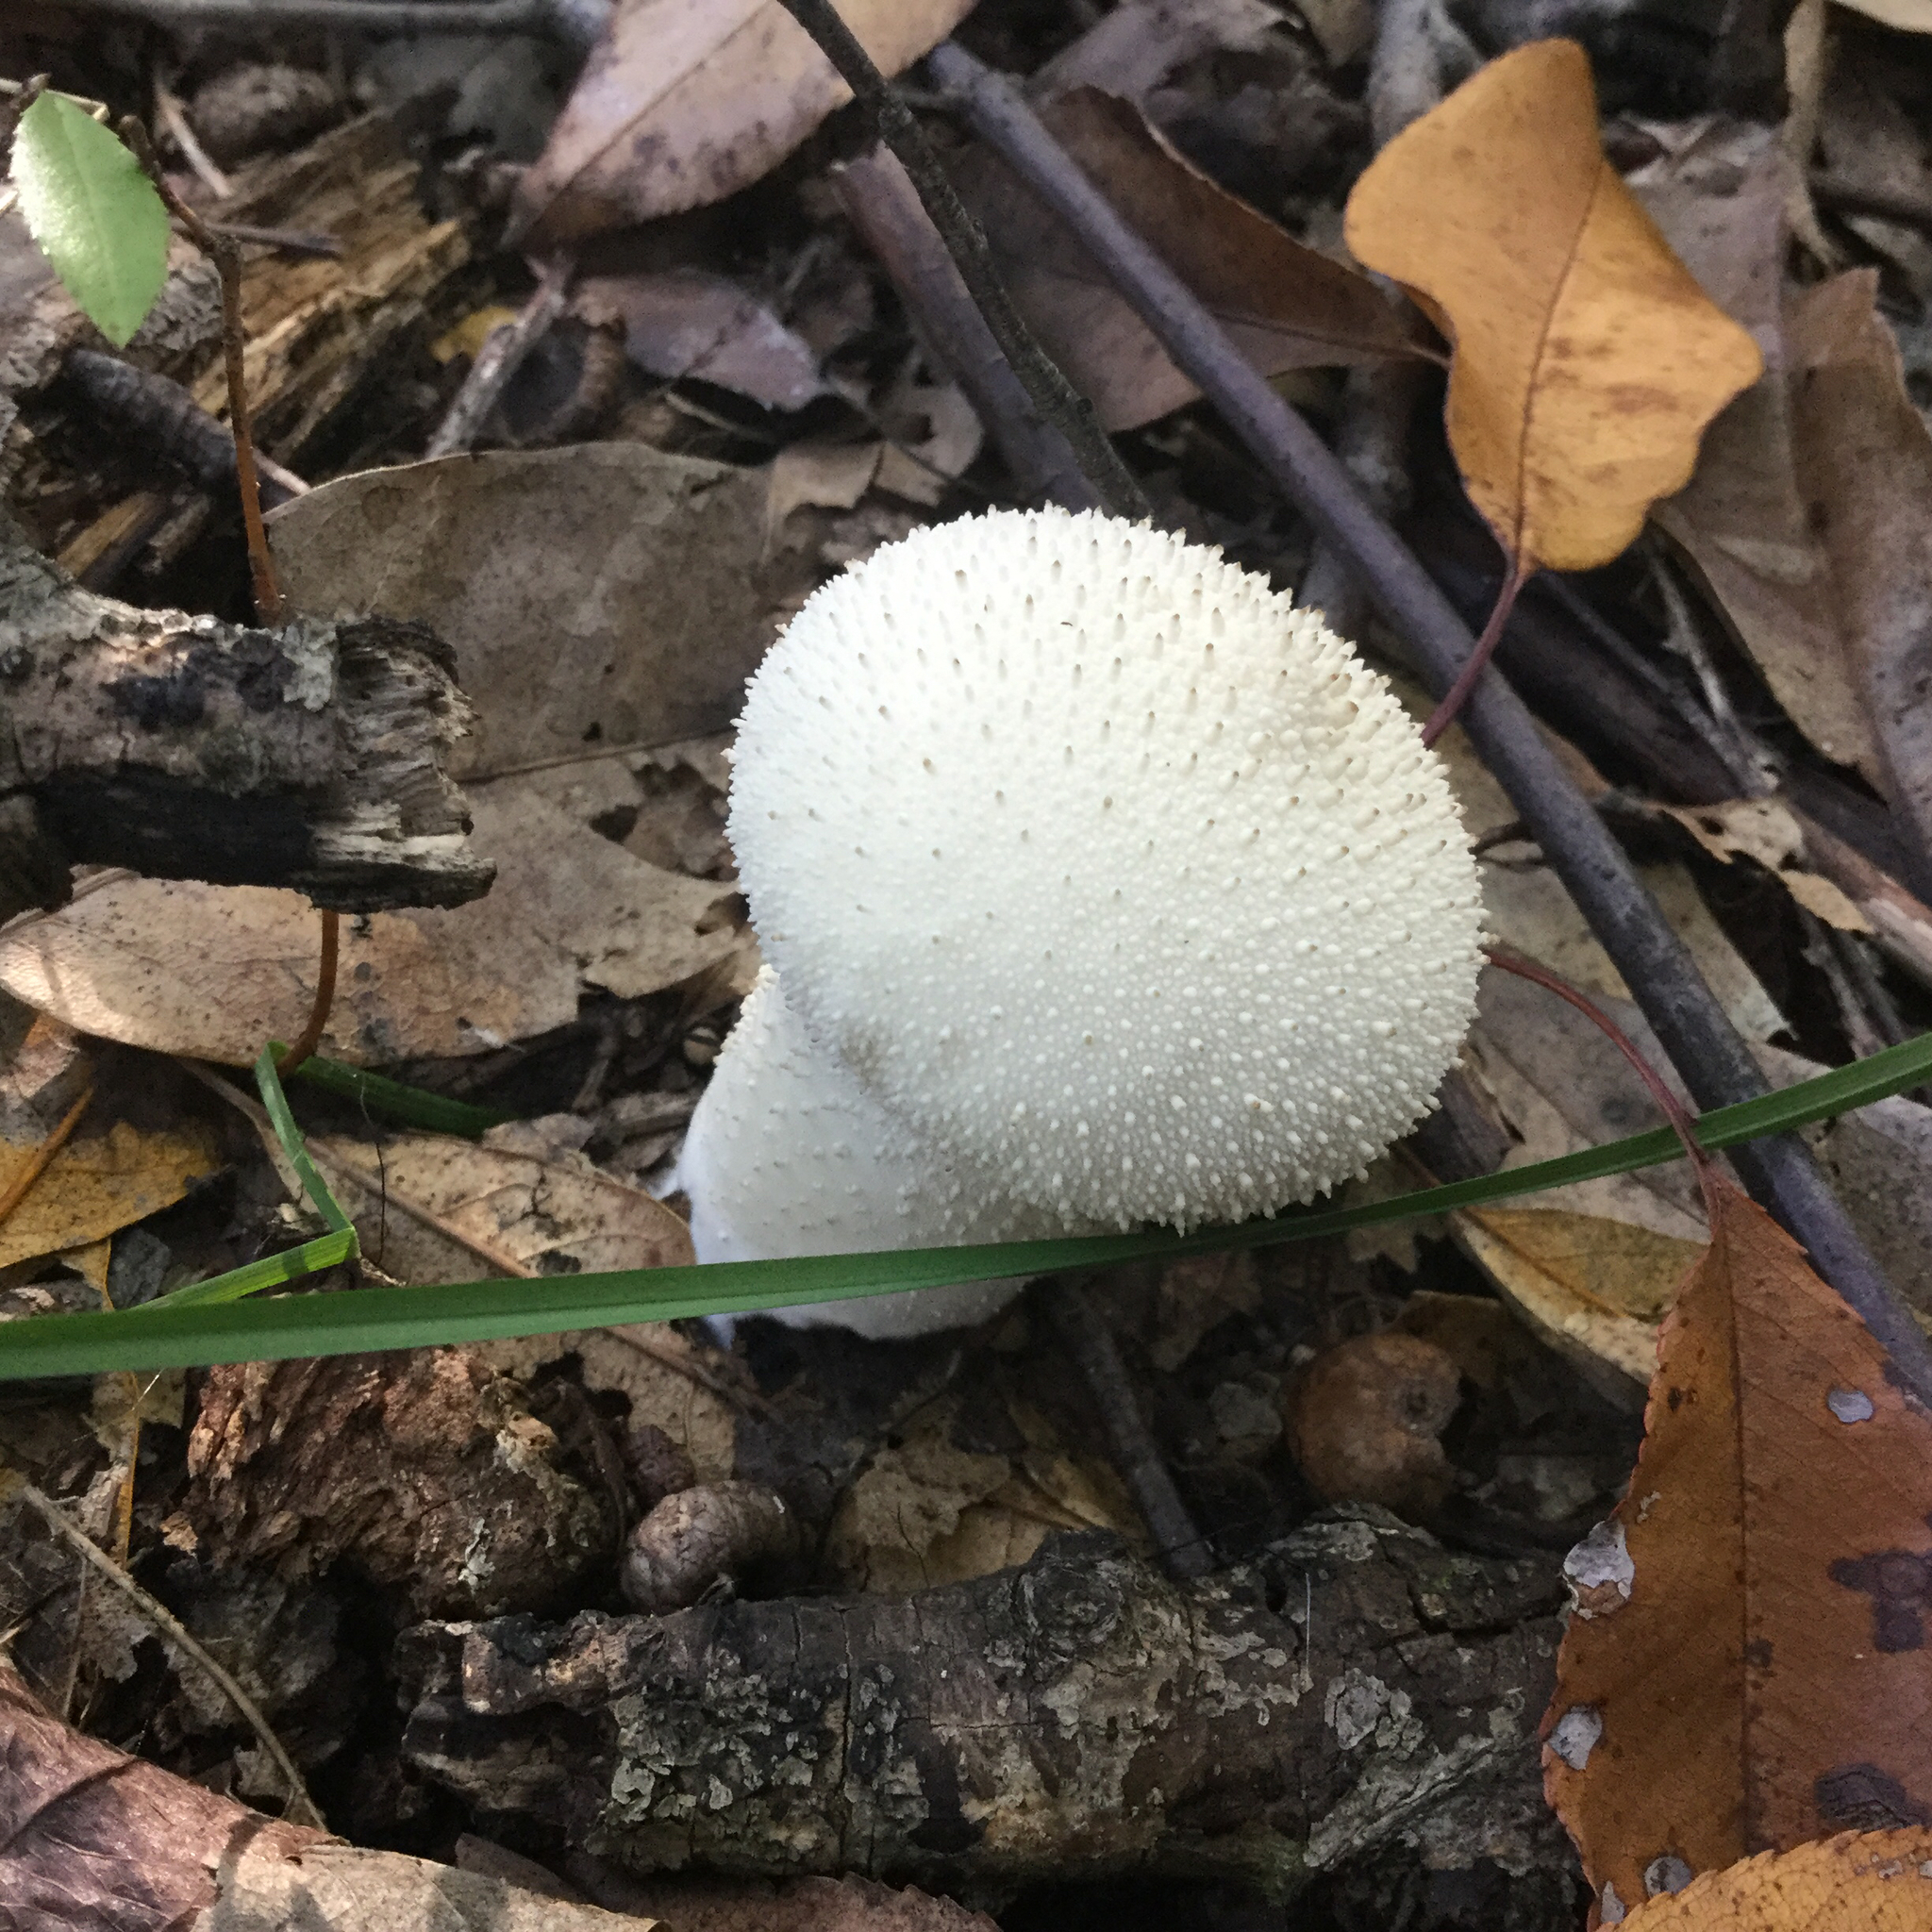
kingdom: Fungi
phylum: Basidiomycota
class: Agaricomycetes
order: Agaricales
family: Lycoperdaceae
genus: Lycoperdon
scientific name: Lycoperdon perlatum
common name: Common puffball
